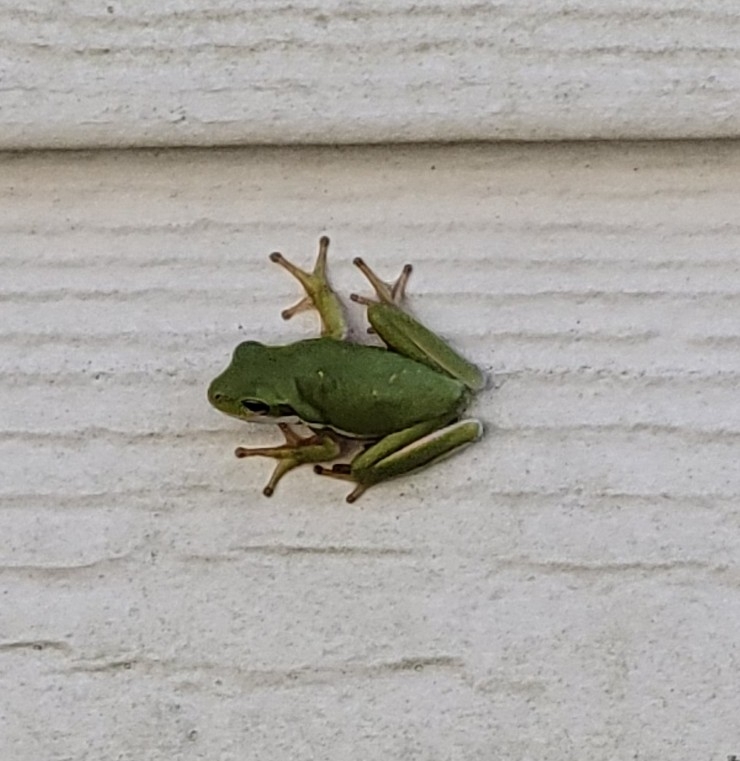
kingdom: Animalia
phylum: Chordata
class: Amphibia
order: Anura
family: Hylidae
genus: Dryophytes
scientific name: Dryophytes cinereus
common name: Green treefrog
